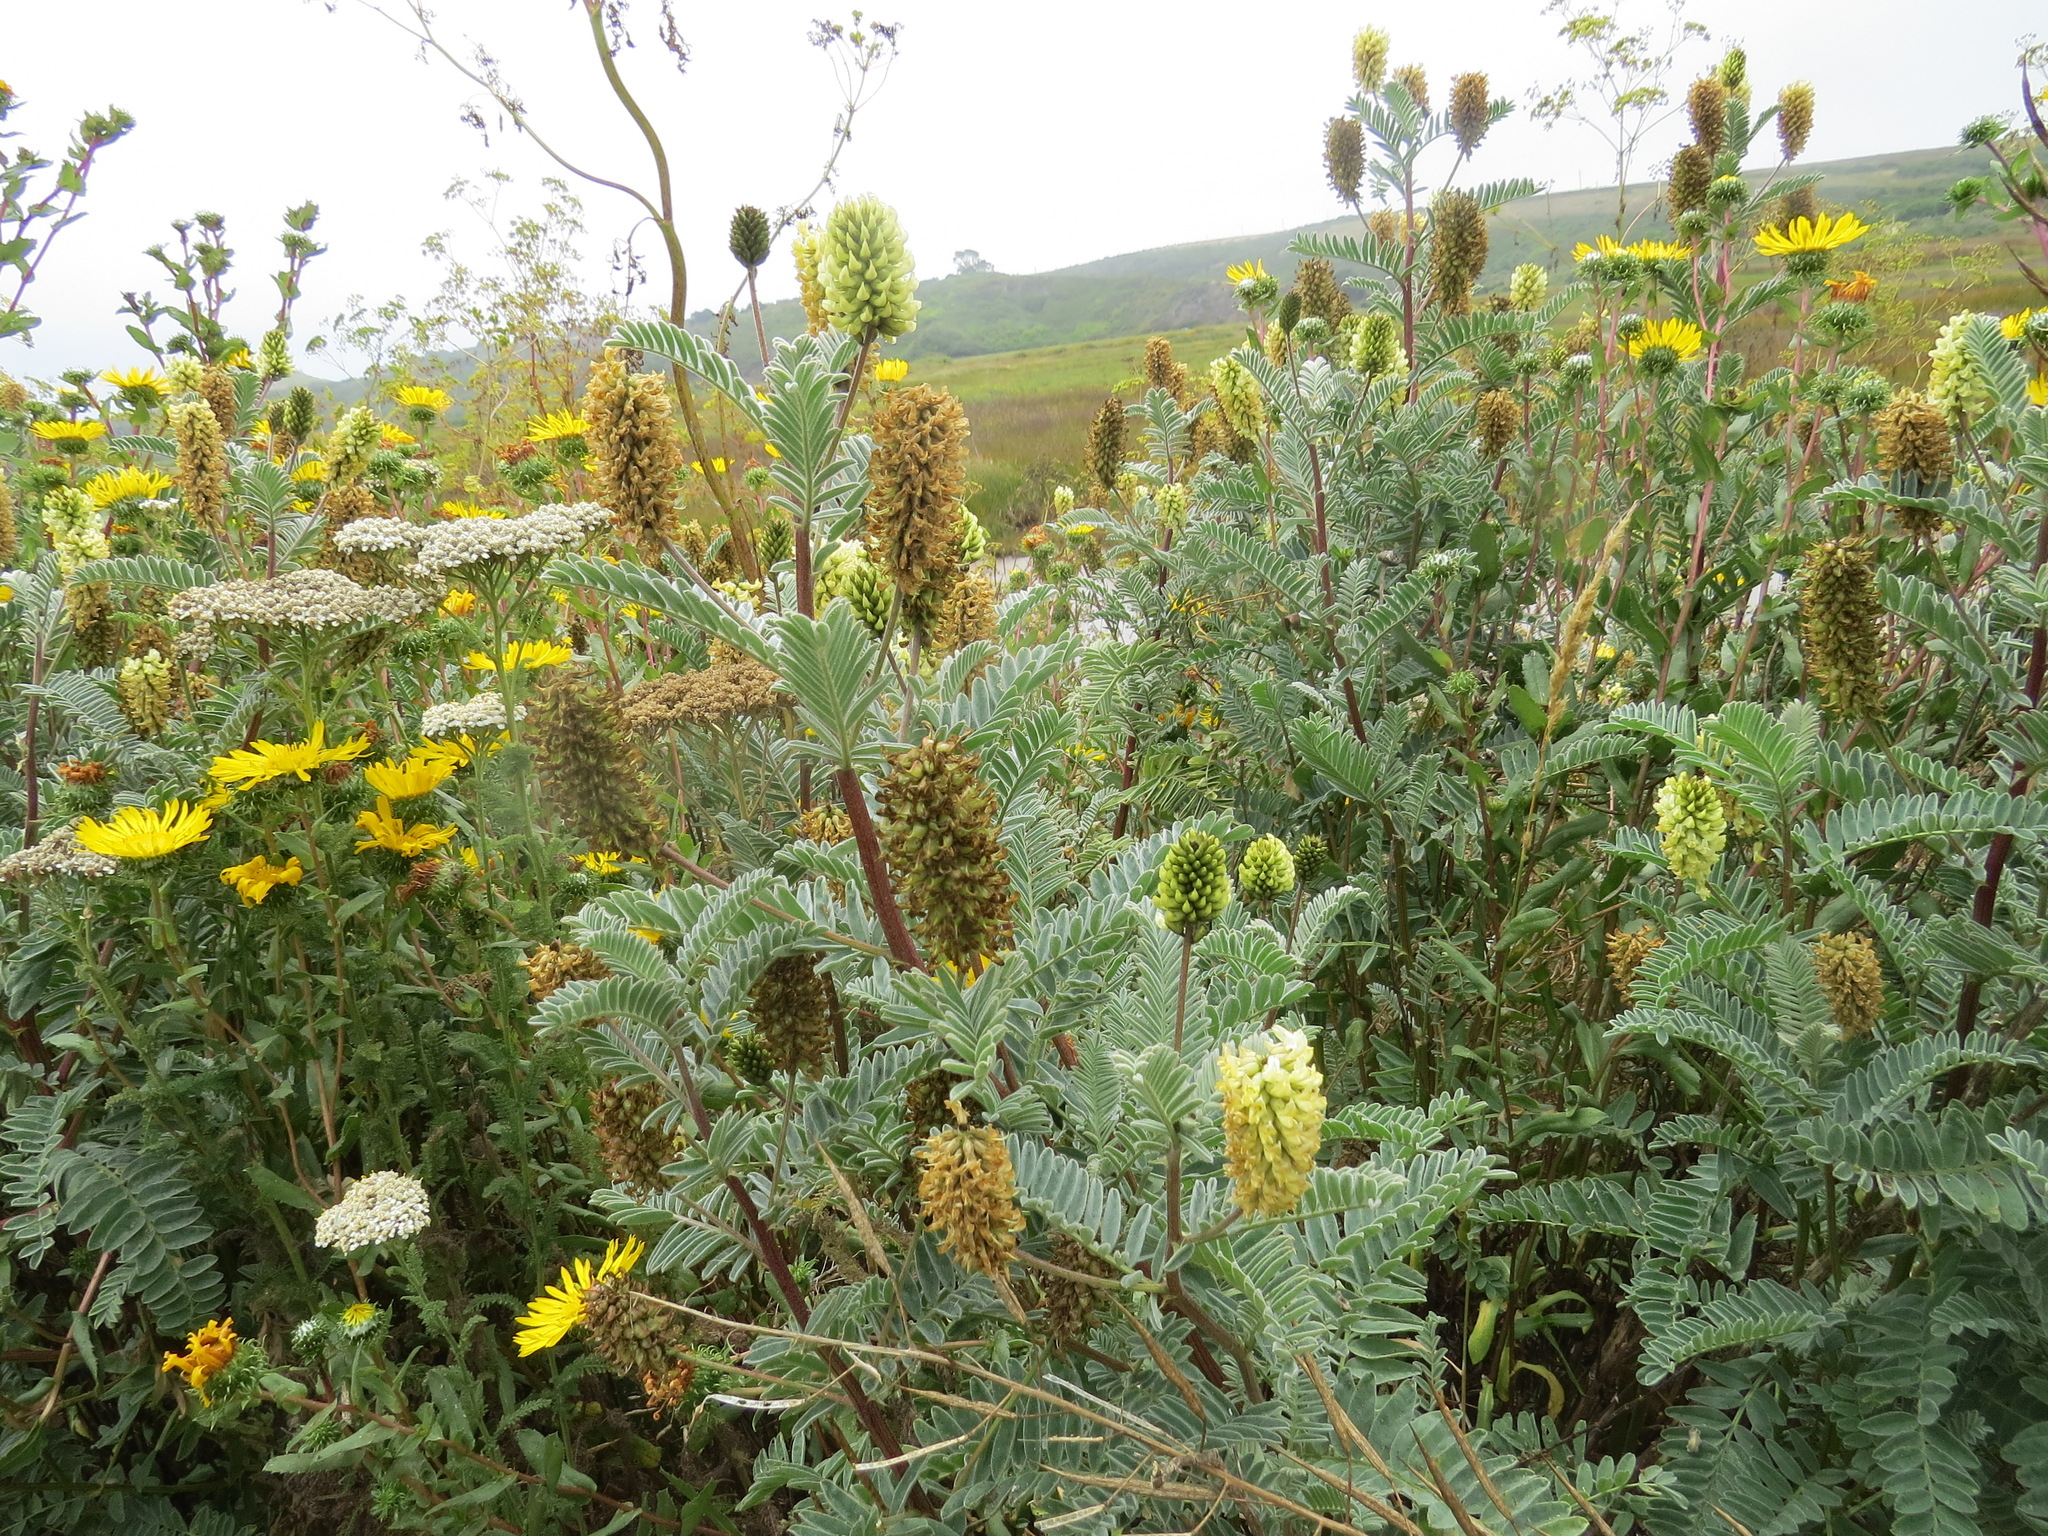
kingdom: Plantae
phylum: Tracheophyta
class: Magnoliopsida
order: Fabales
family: Fabaceae
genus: Astragalus
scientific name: Astragalus pycnostachyus
